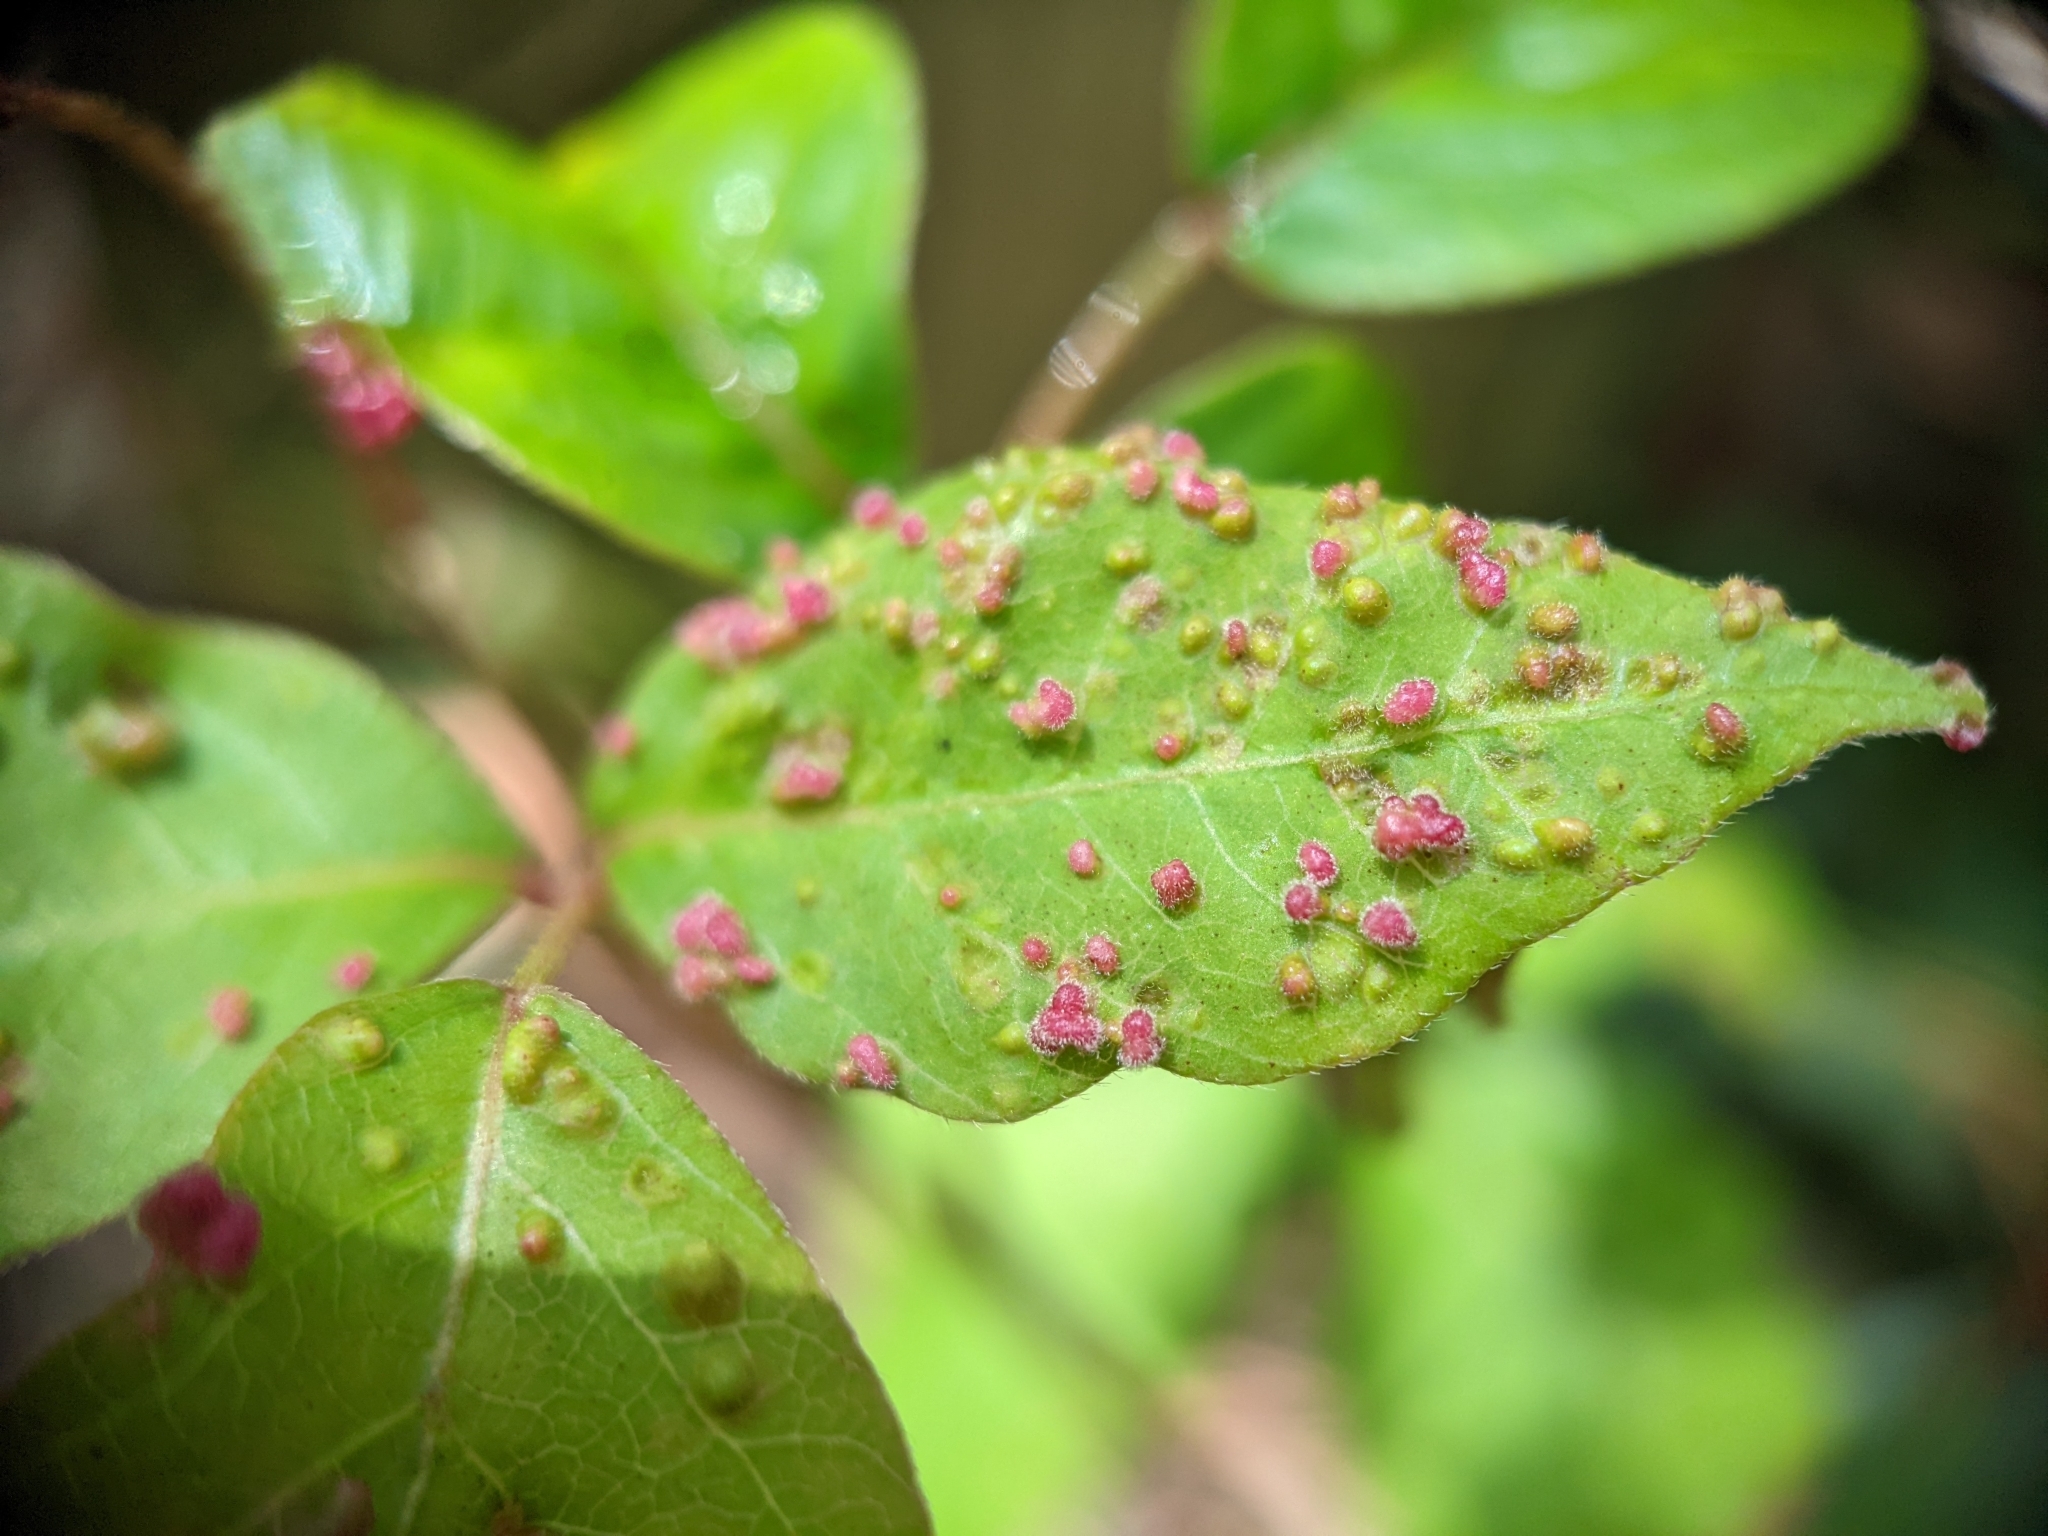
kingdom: Animalia
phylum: Arthropoda
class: Arachnida
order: Trombidiformes
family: Eriophyidae
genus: Aculops
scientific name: Aculops
